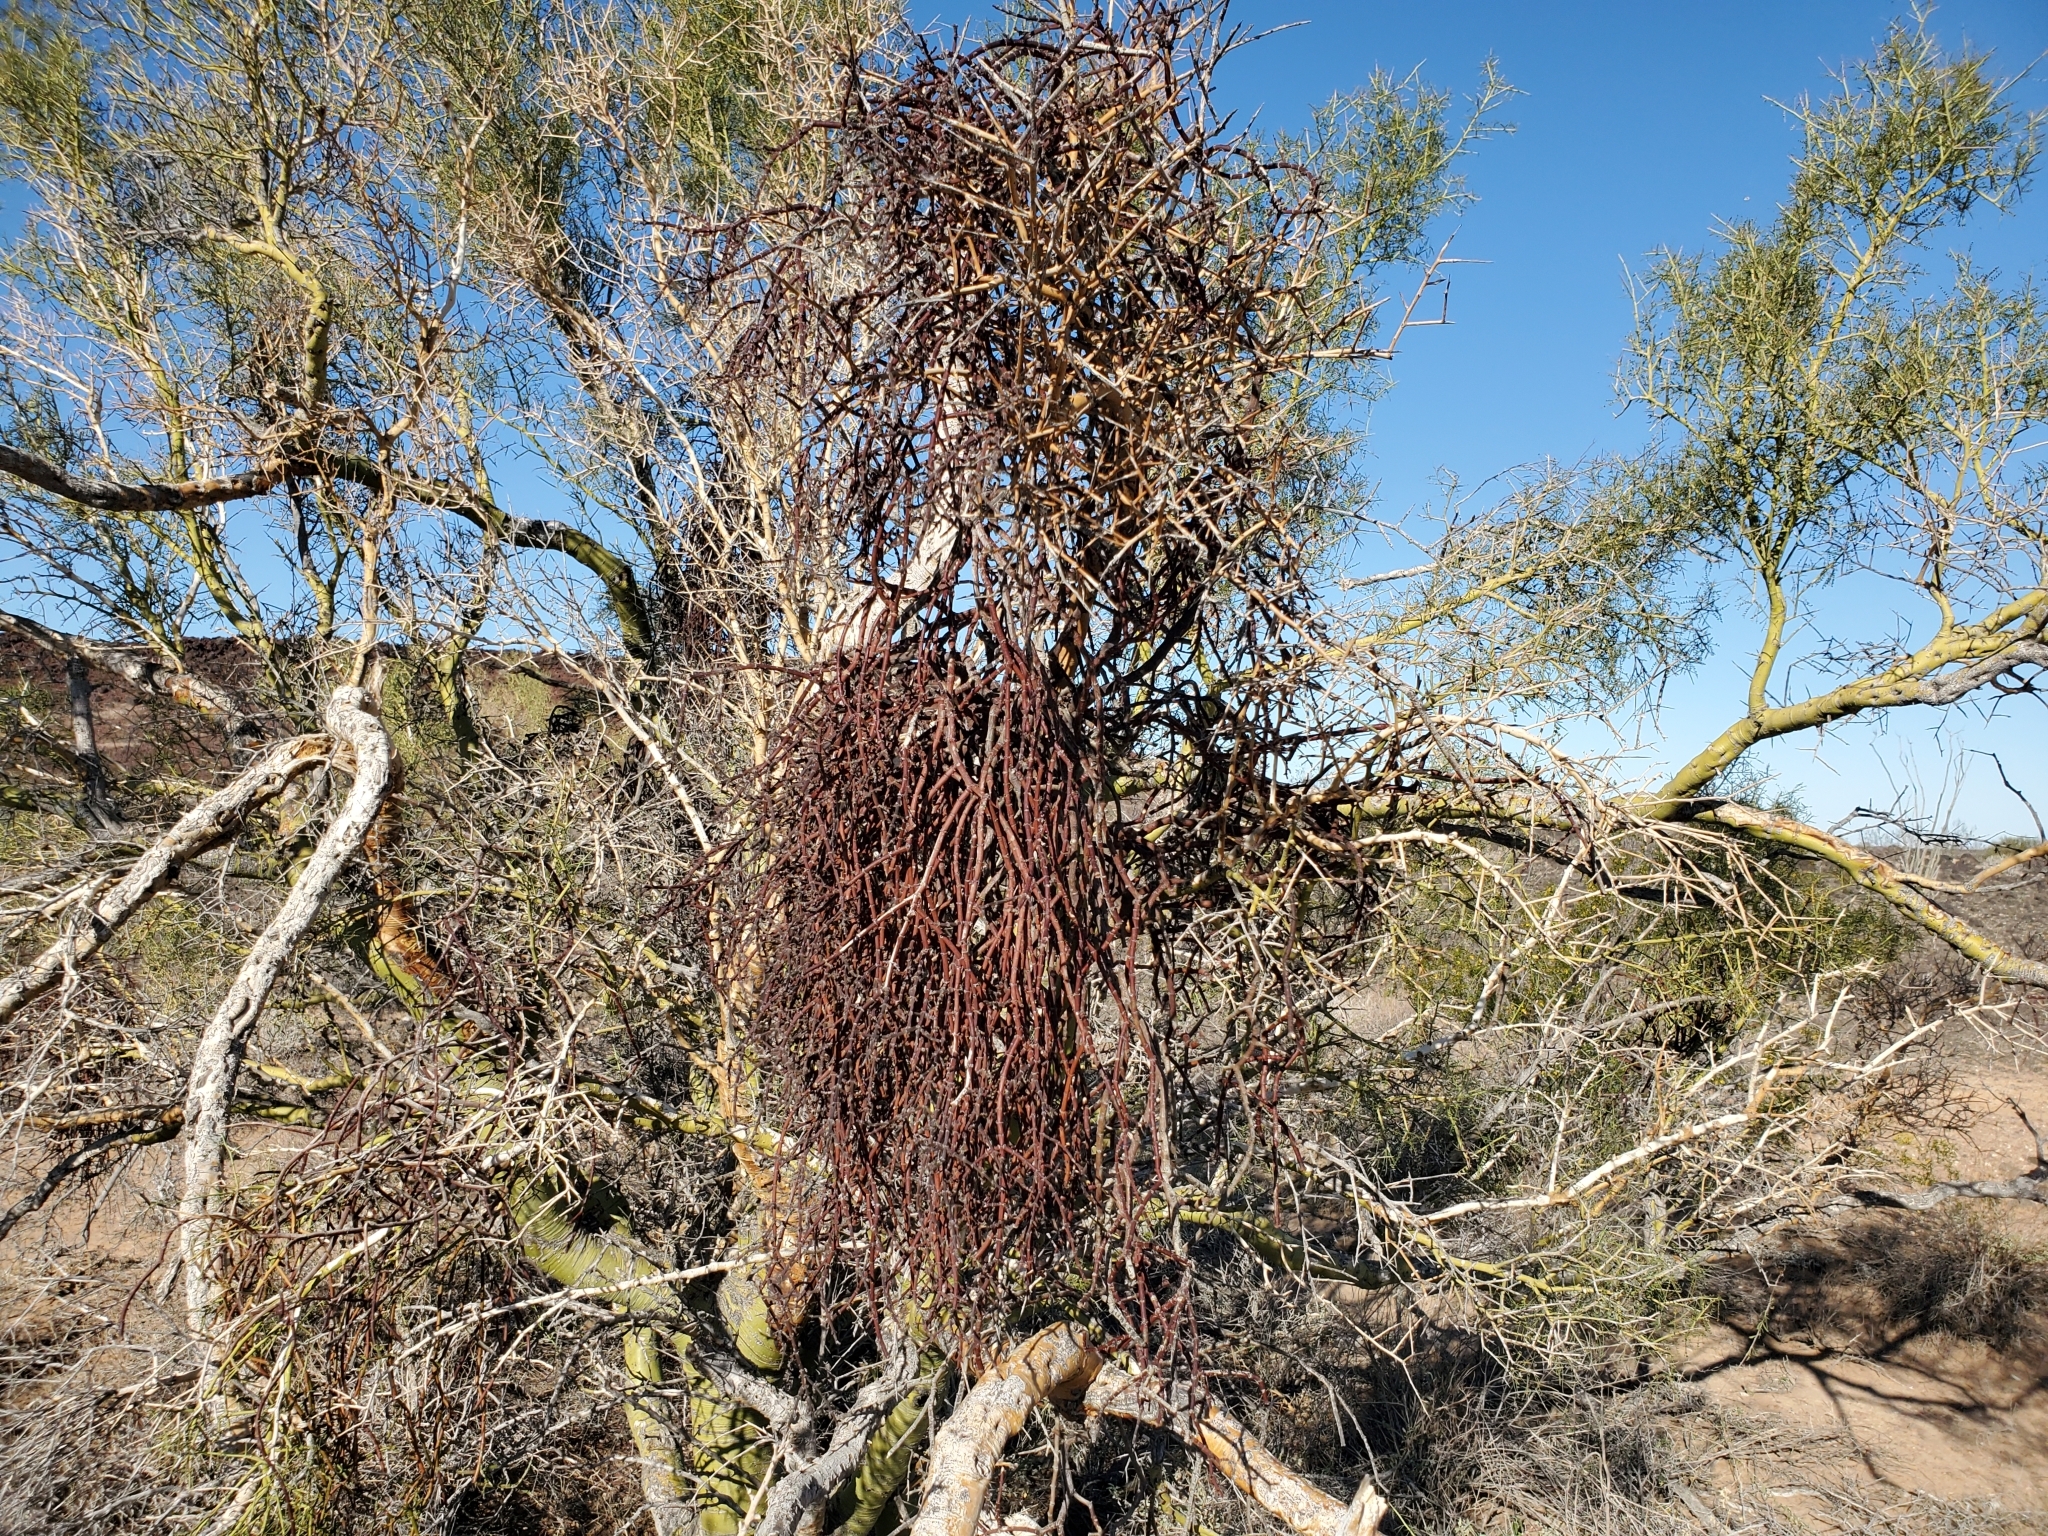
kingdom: Plantae
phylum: Tracheophyta
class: Magnoliopsida
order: Fabales
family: Fabaceae
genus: Parkinsonia
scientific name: Parkinsonia microphylla
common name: Yellow paloverde
